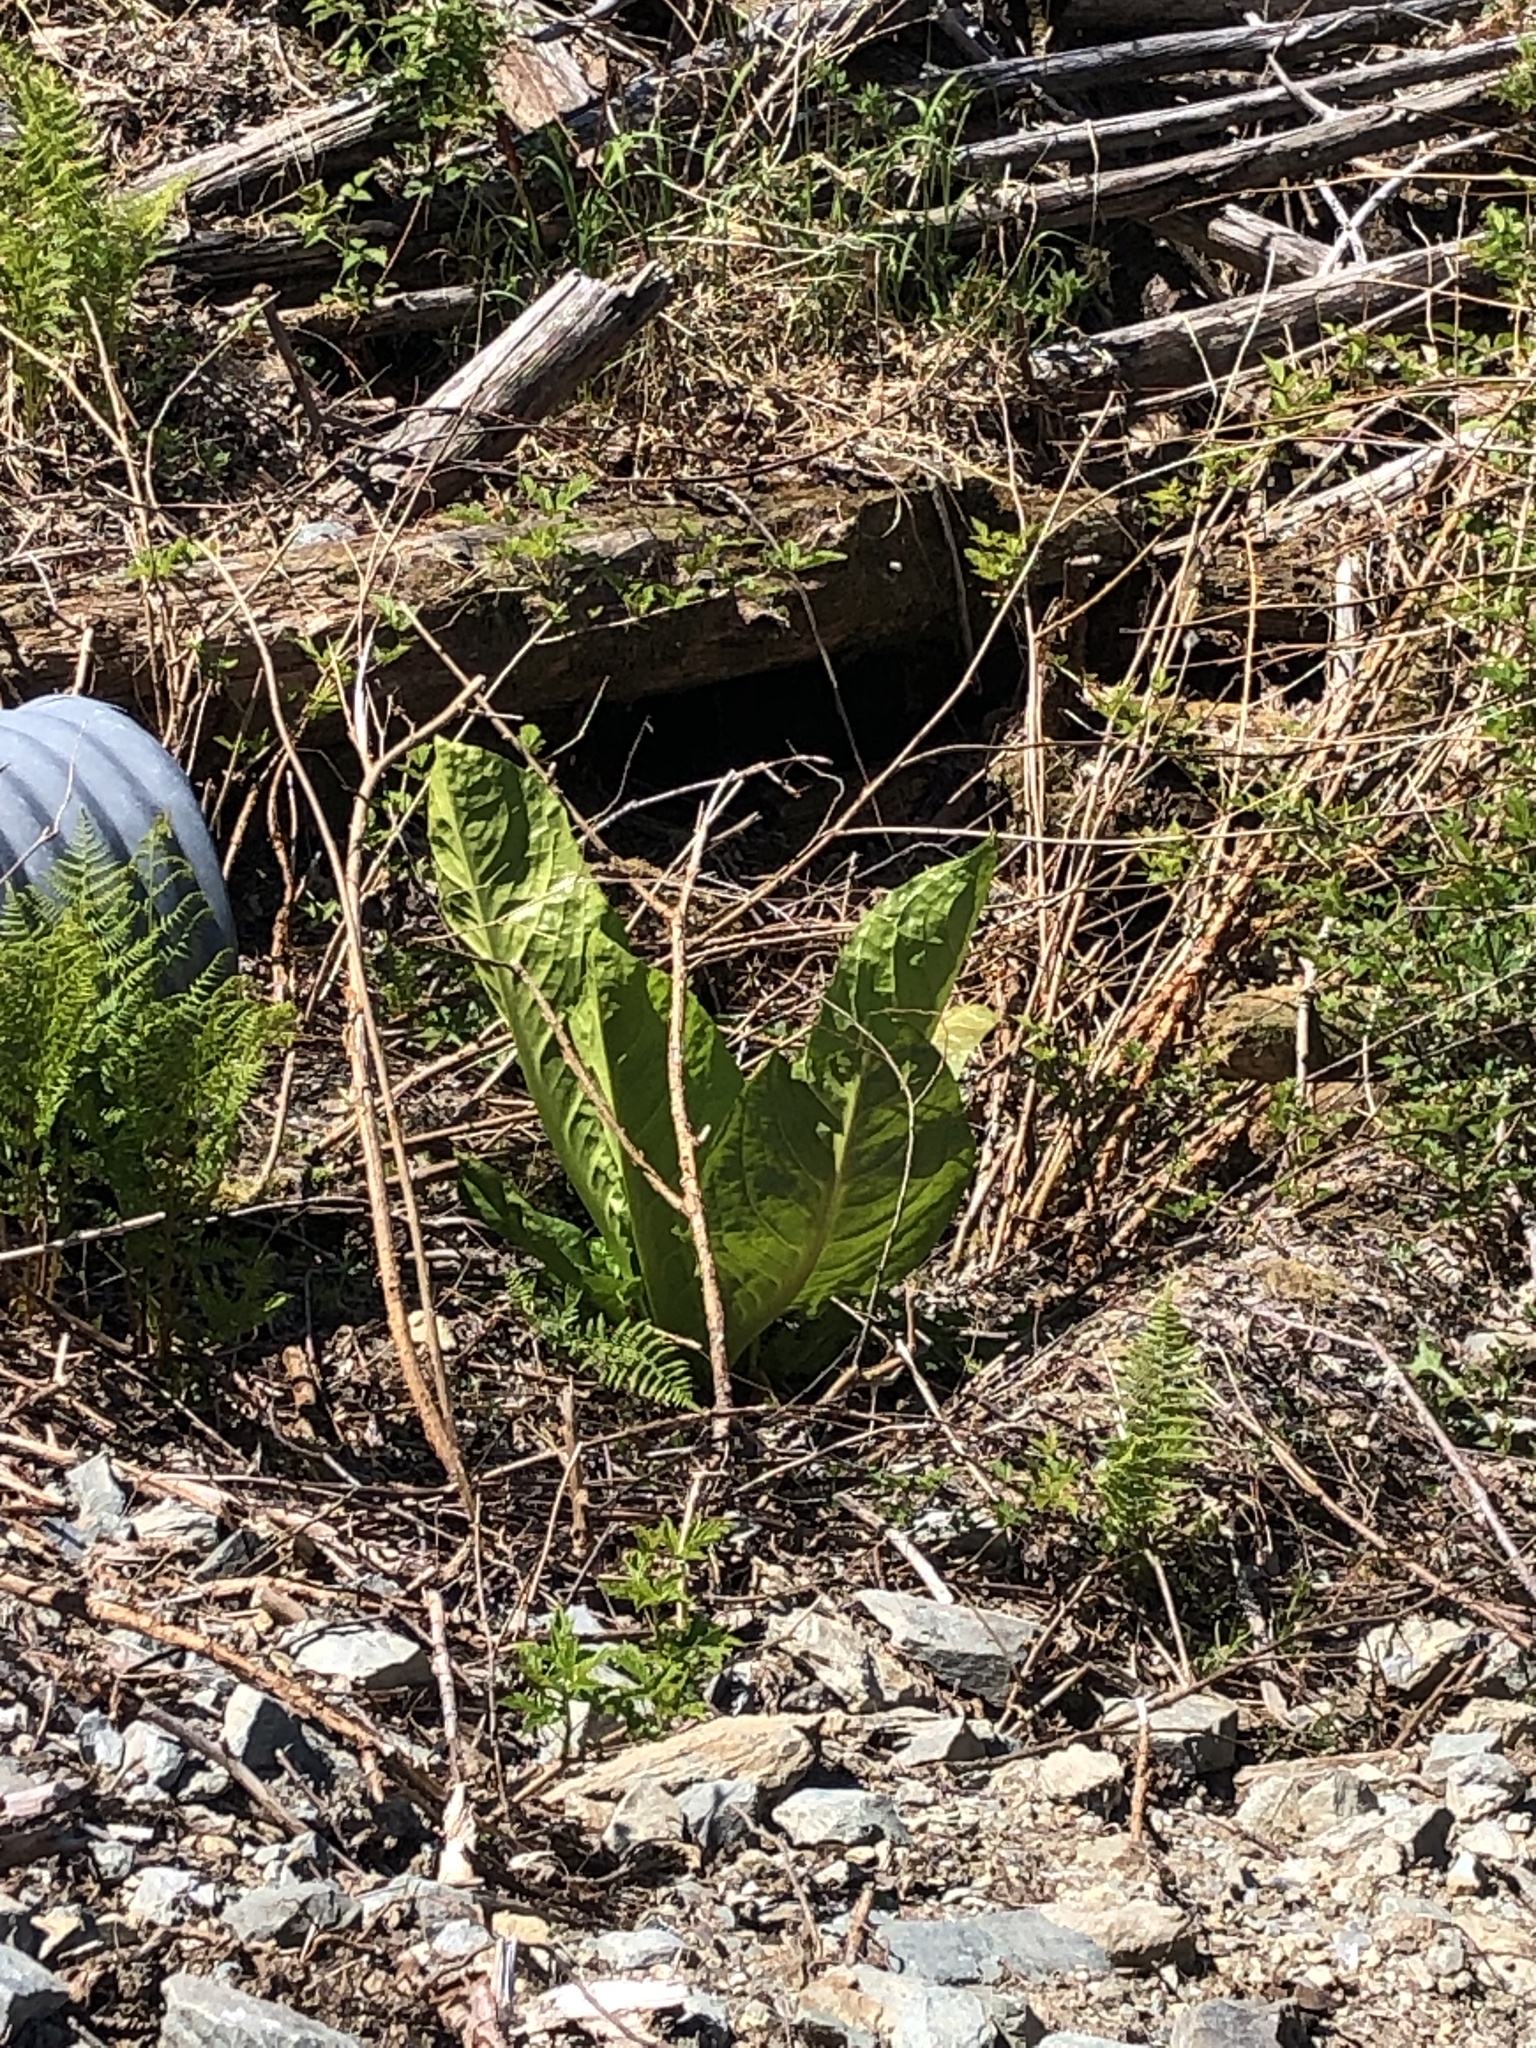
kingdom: Plantae
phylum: Tracheophyta
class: Liliopsida
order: Alismatales
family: Araceae
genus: Lysichiton
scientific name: Lysichiton americanus
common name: American skunk cabbage
